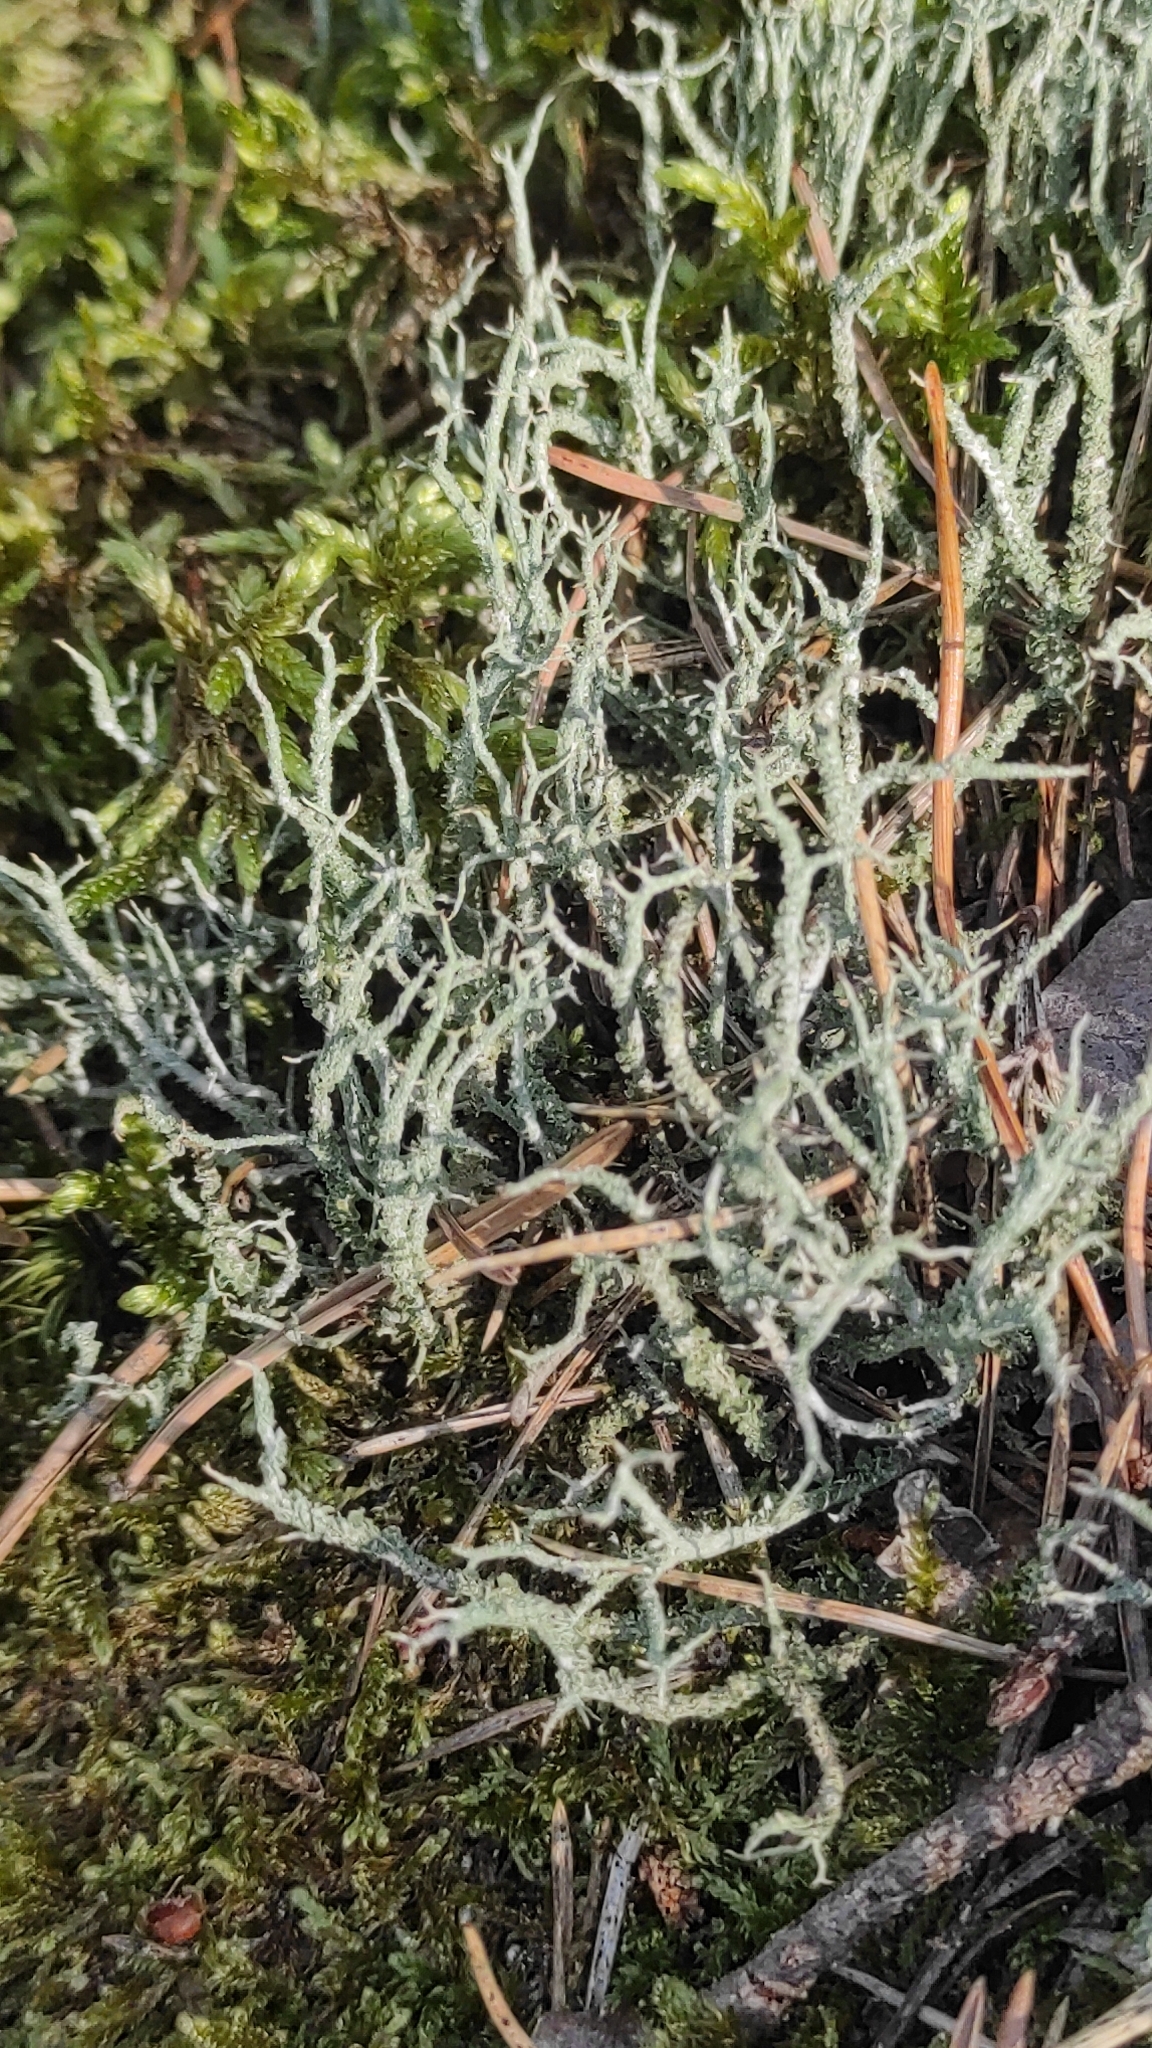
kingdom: Fungi
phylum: Ascomycota
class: Lecanoromycetes
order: Lecanorales
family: Cladoniaceae
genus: Cladonia
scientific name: Cladonia scabriuscula
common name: Mealy forked clad lichen
